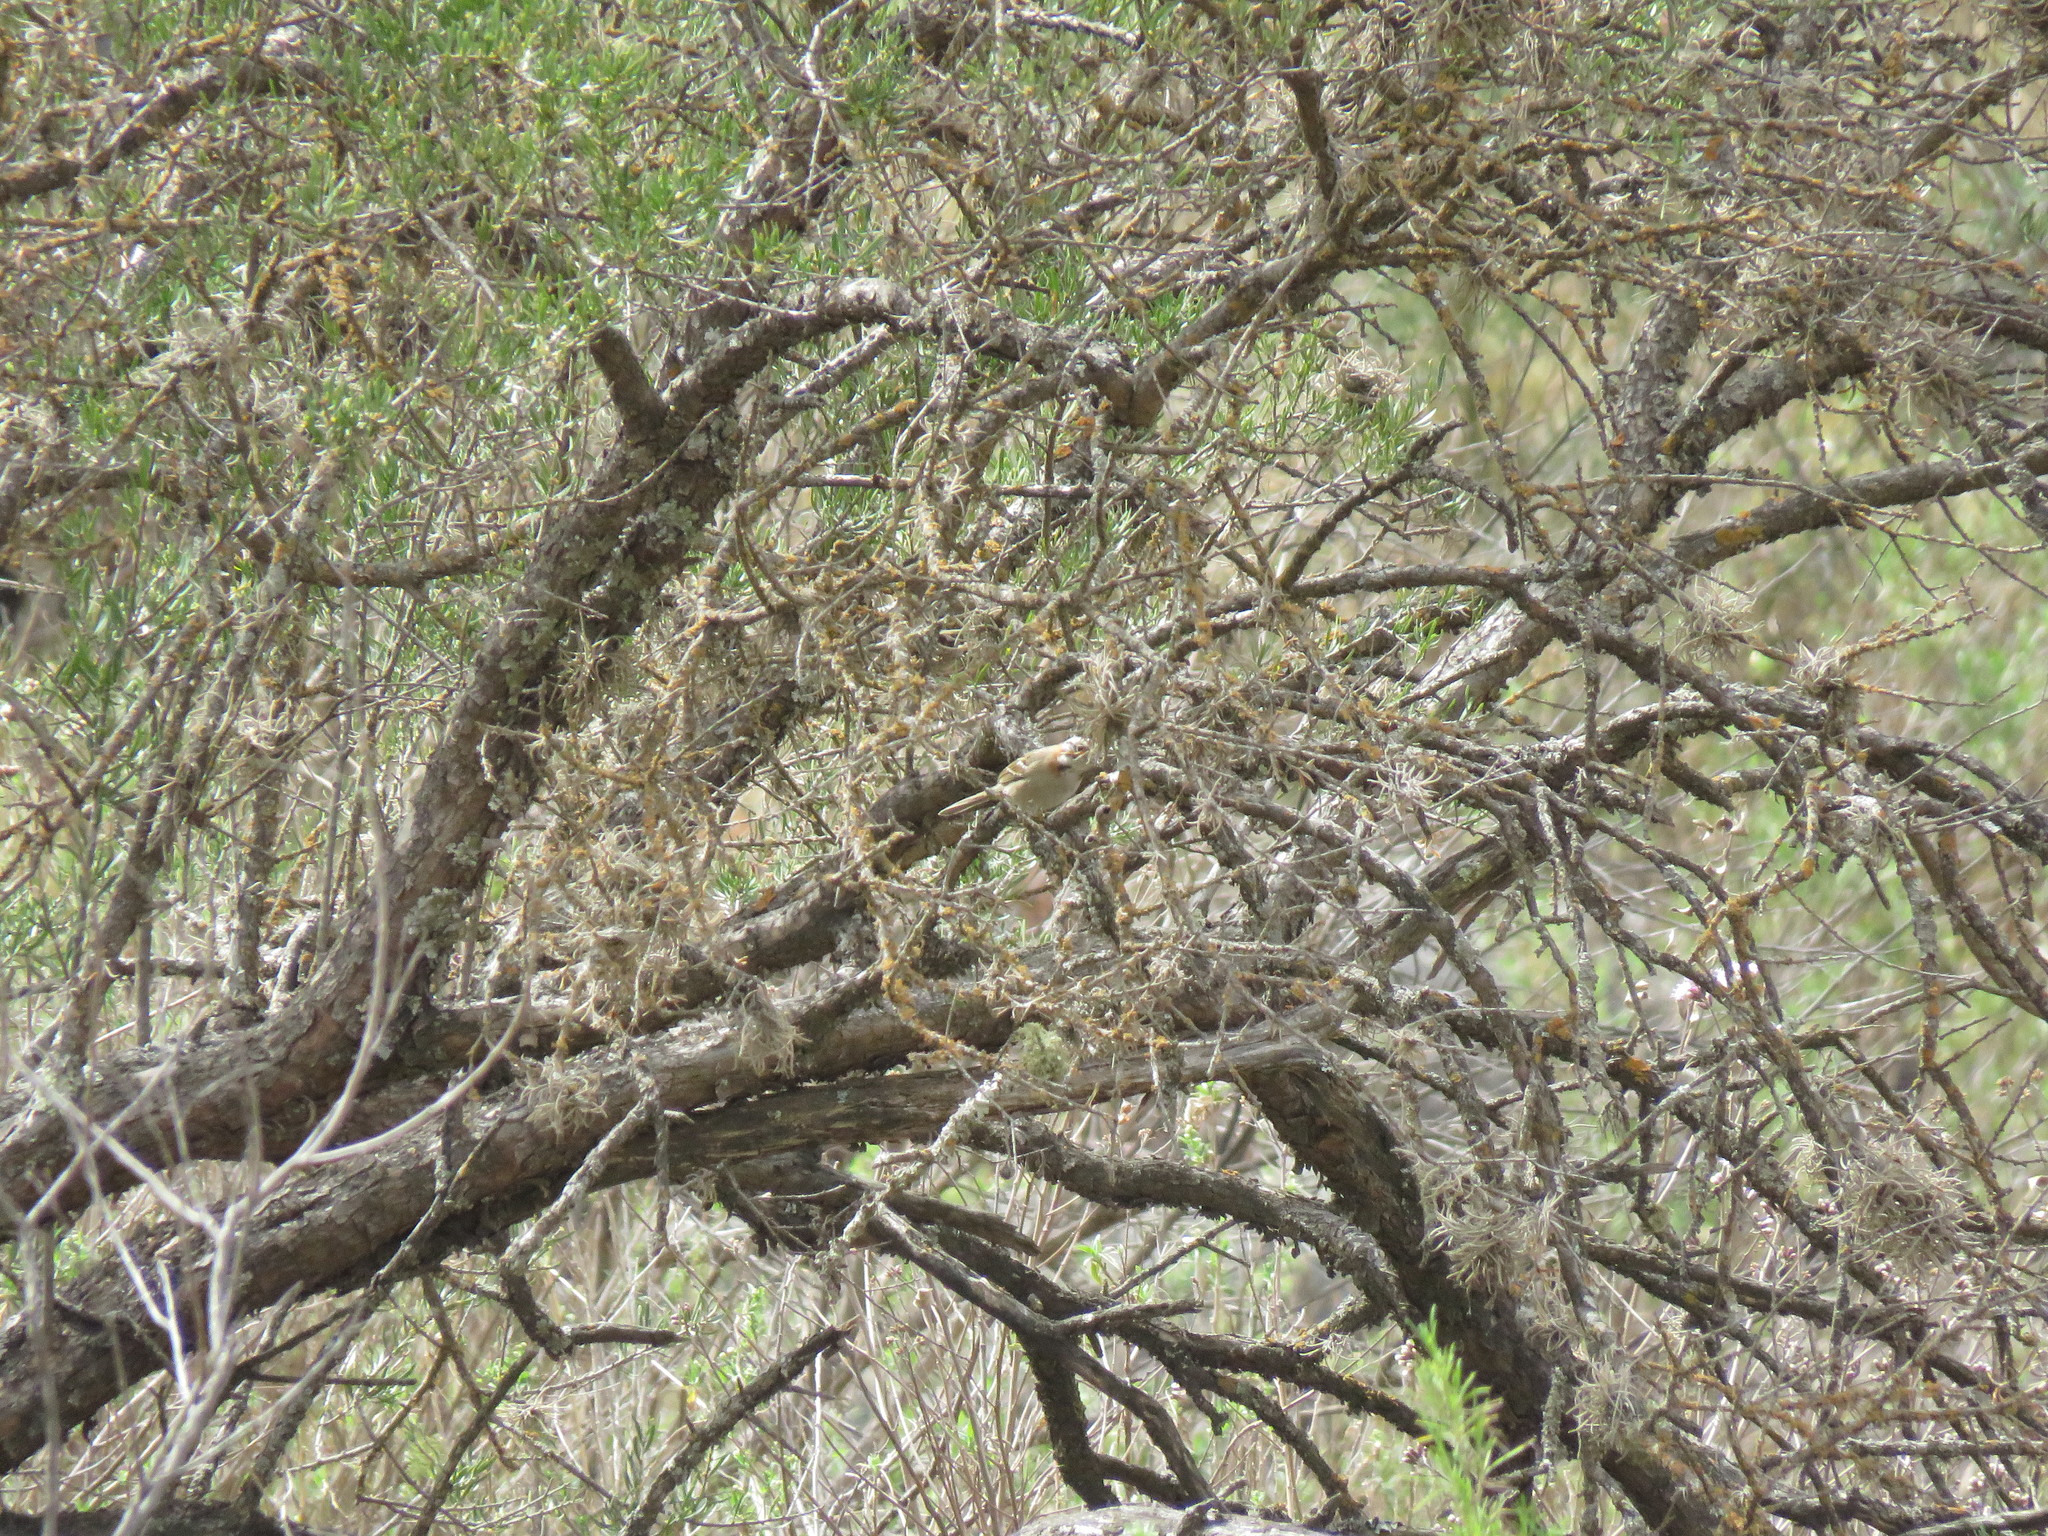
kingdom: Animalia
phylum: Chordata
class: Aves
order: Passeriformes
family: Passerellidae
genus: Zonotrichia
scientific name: Zonotrichia capensis
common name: Rufous-collared sparrow
